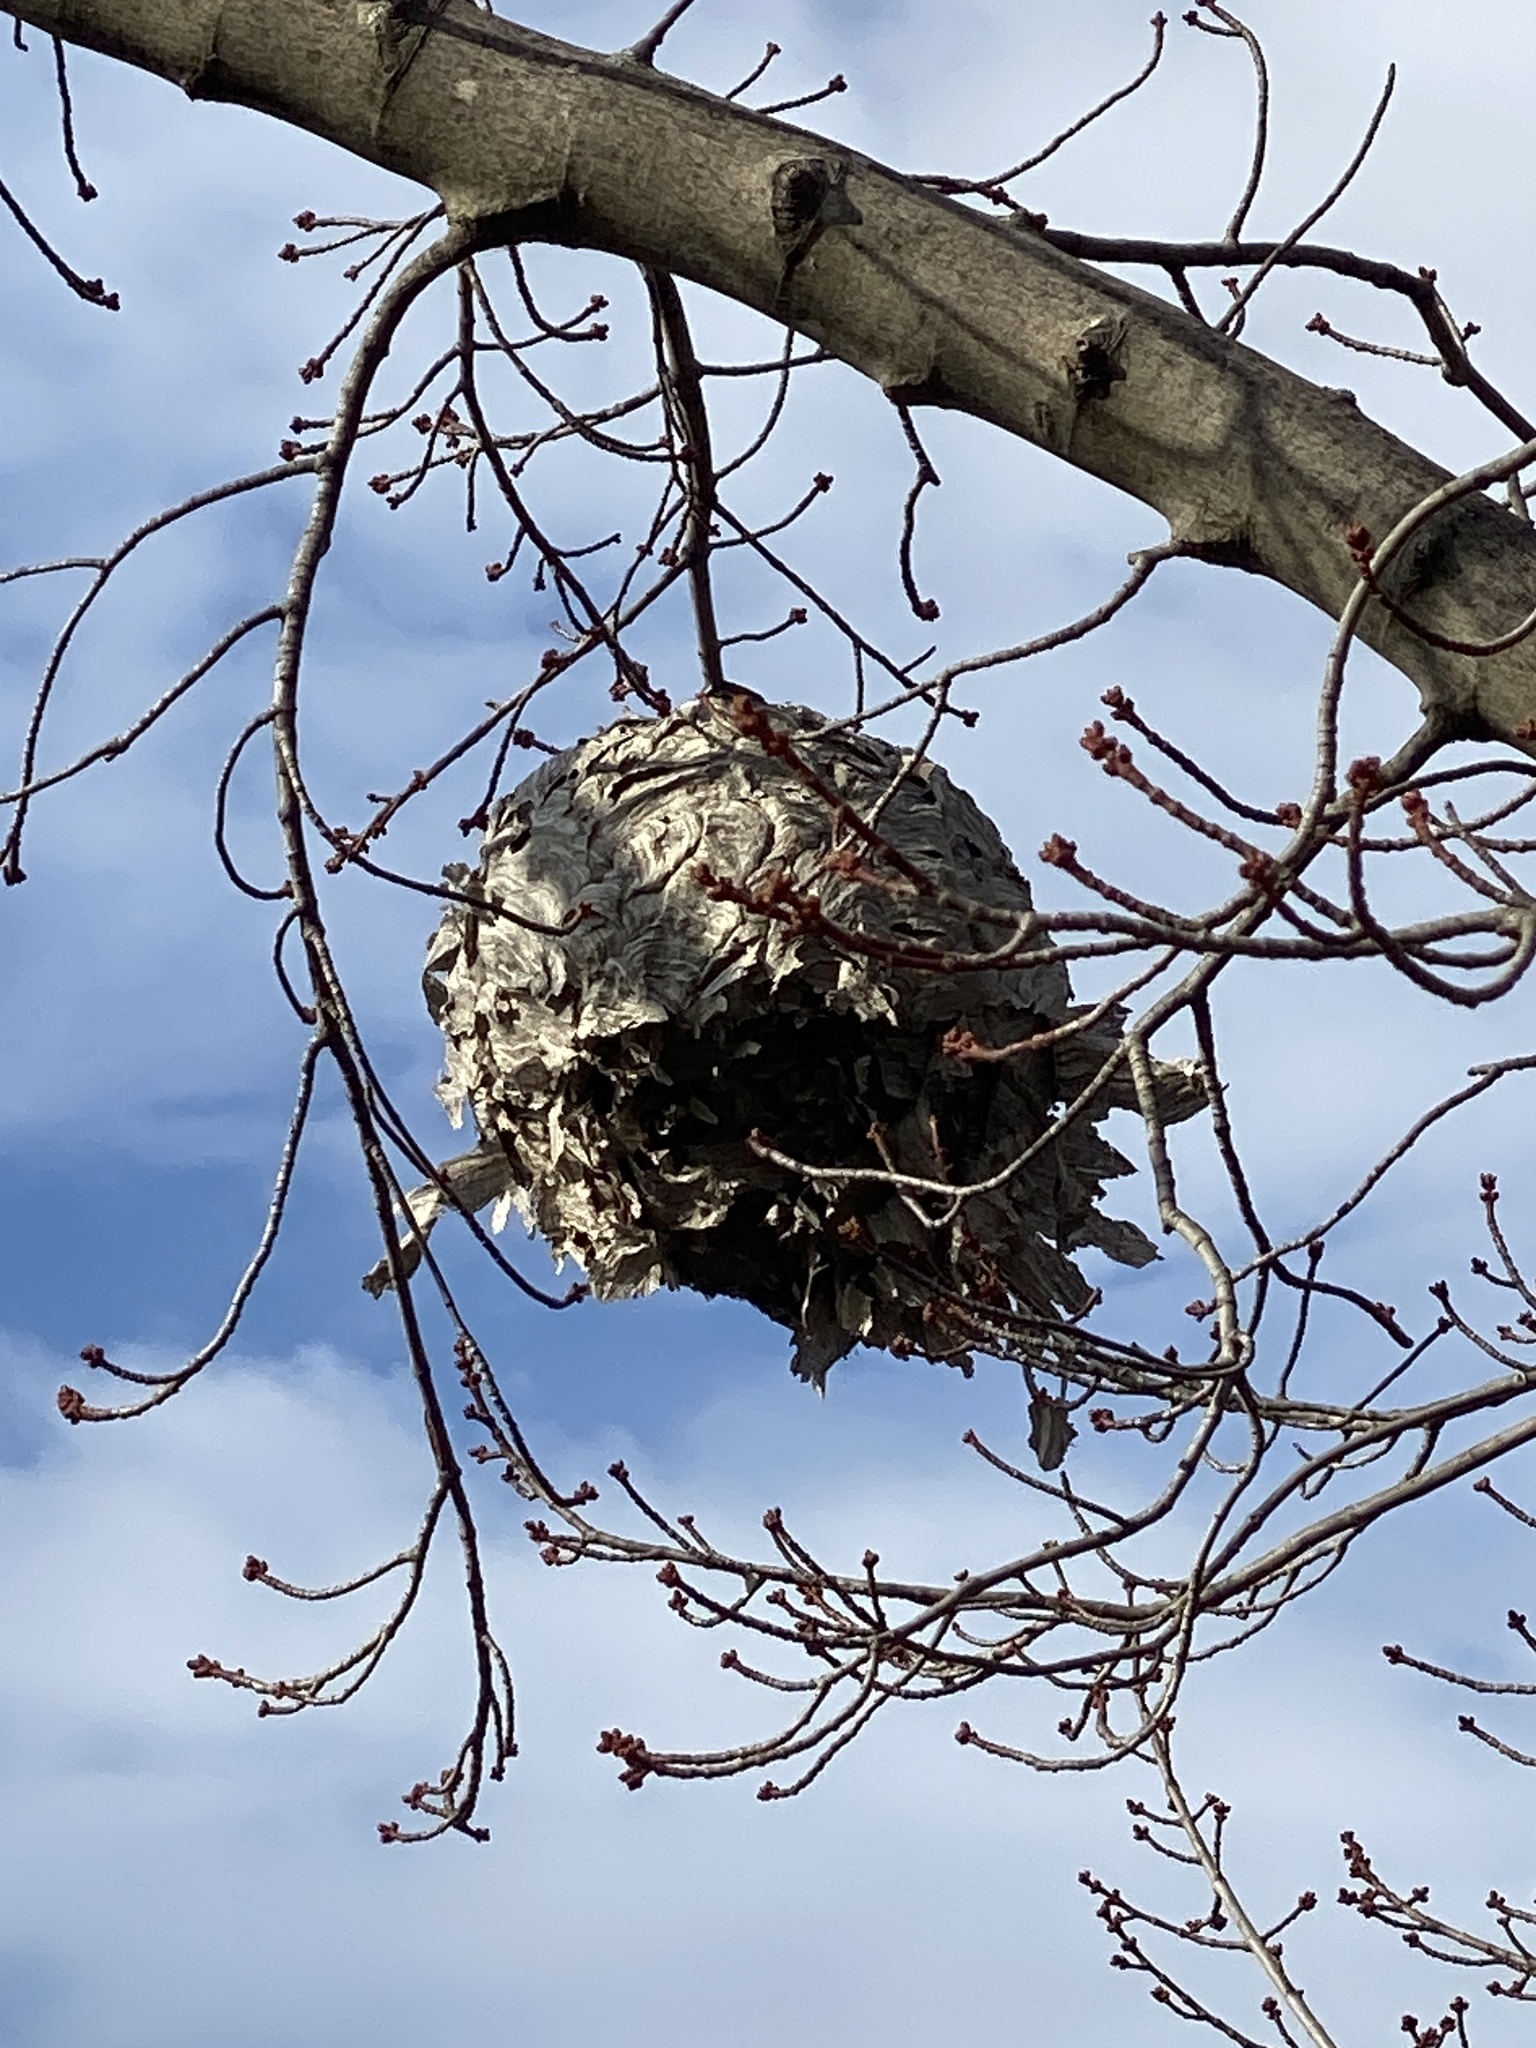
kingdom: Animalia
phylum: Arthropoda
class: Insecta
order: Hymenoptera
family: Vespidae
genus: Dolichovespula
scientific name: Dolichovespula maculata
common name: Bald-faced hornet
